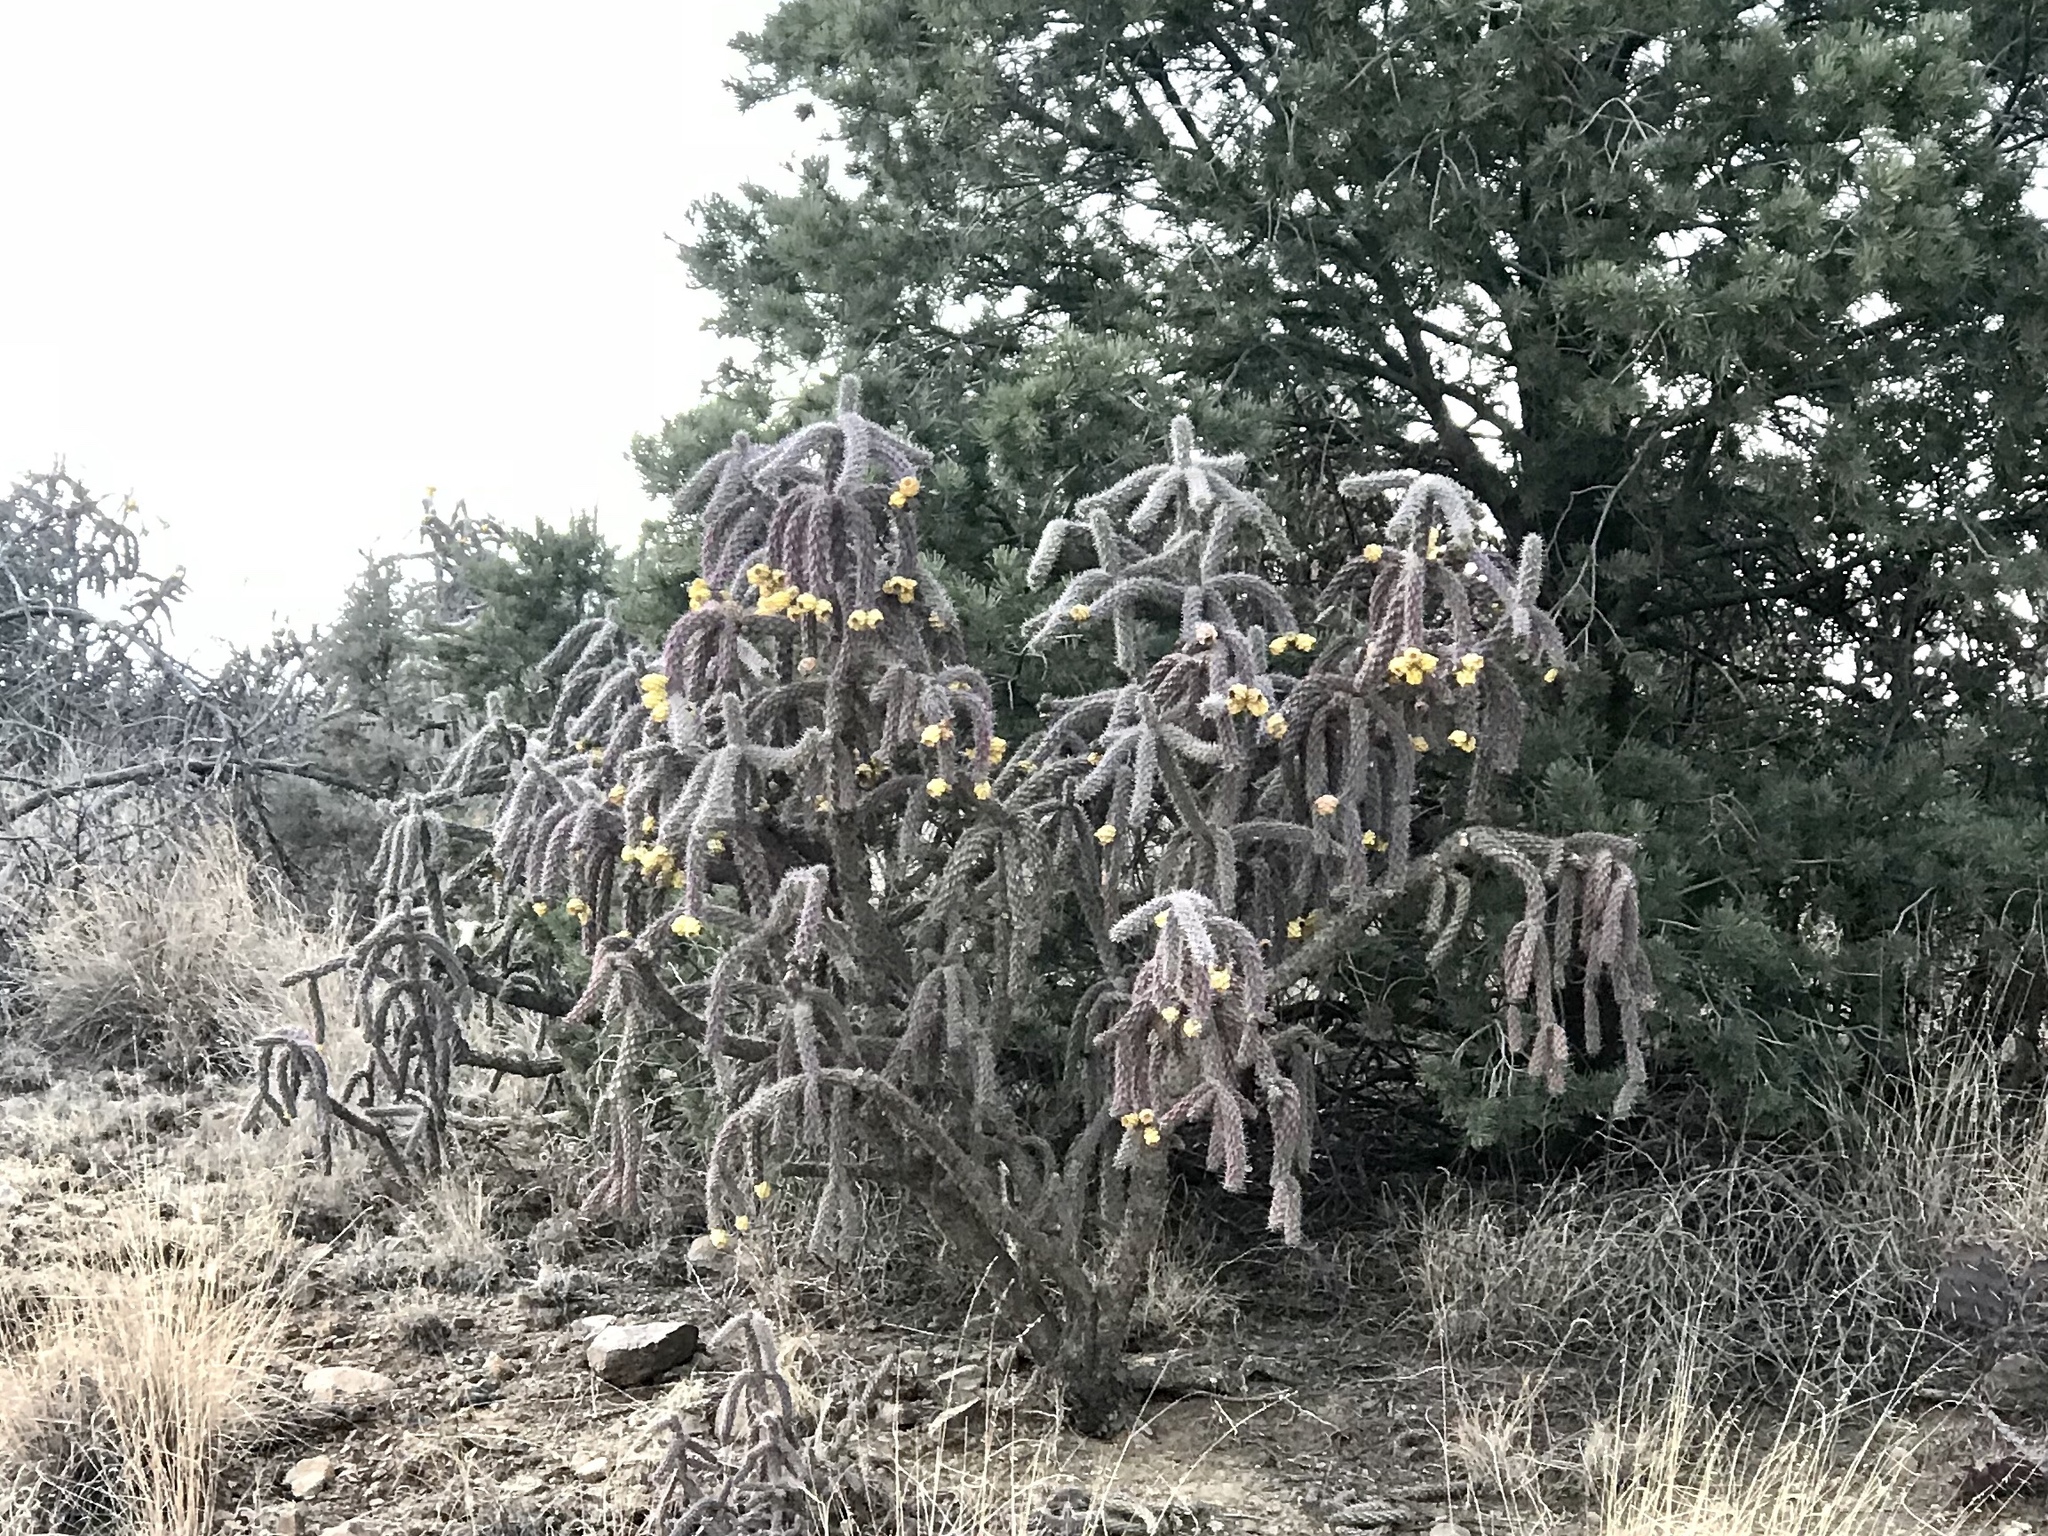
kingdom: Plantae
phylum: Tracheophyta
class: Magnoliopsida
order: Caryophyllales
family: Cactaceae
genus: Cylindropuntia
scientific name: Cylindropuntia imbricata
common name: Candelabrum cactus
